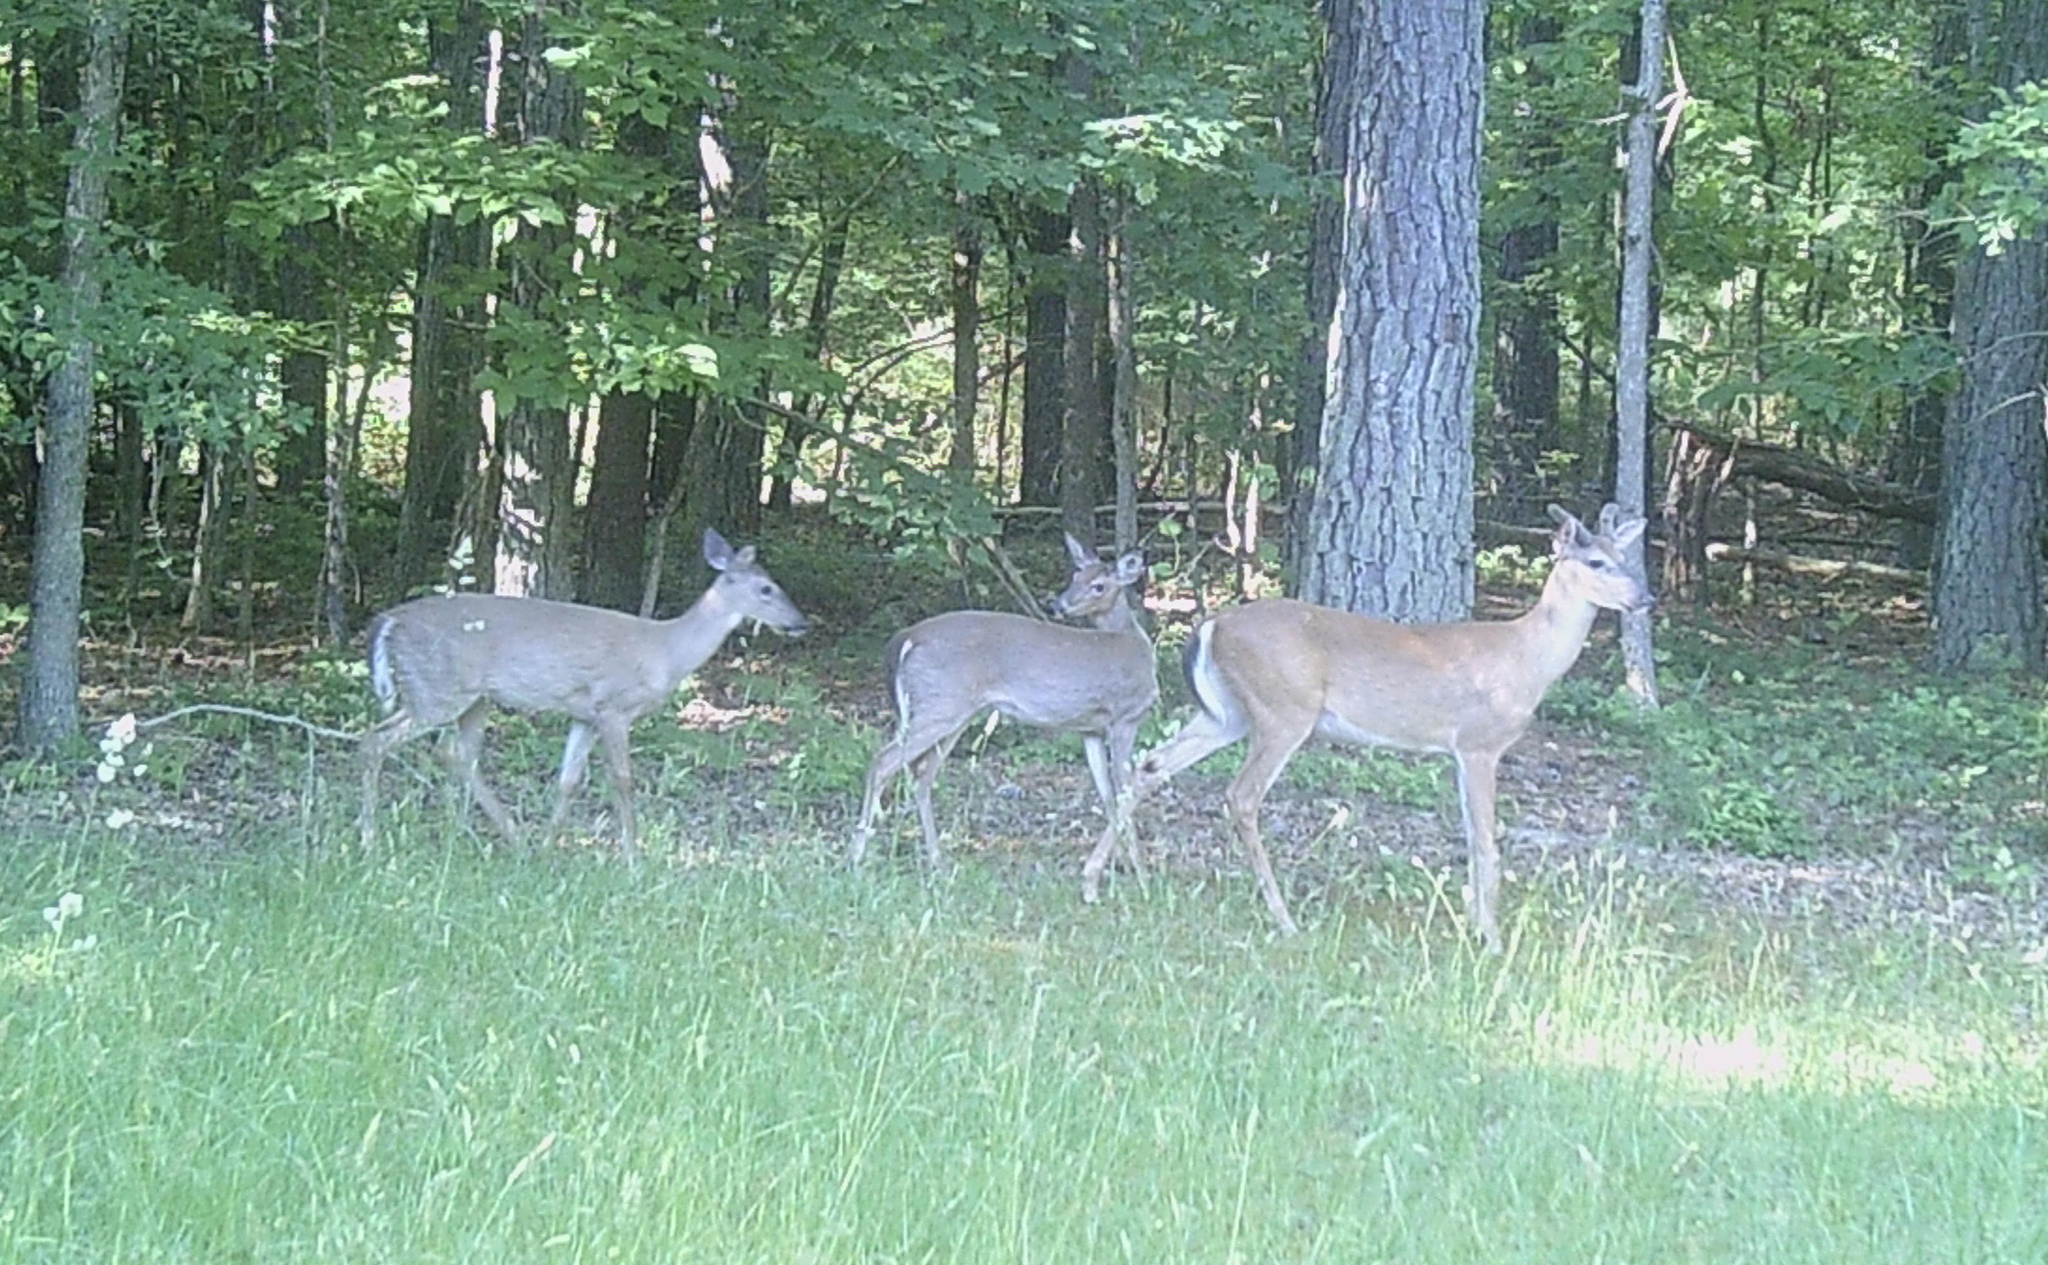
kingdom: Animalia
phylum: Chordata
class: Mammalia
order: Artiodactyla
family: Cervidae
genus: Odocoileus
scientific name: Odocoileus virginianus
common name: White-tailed deer
